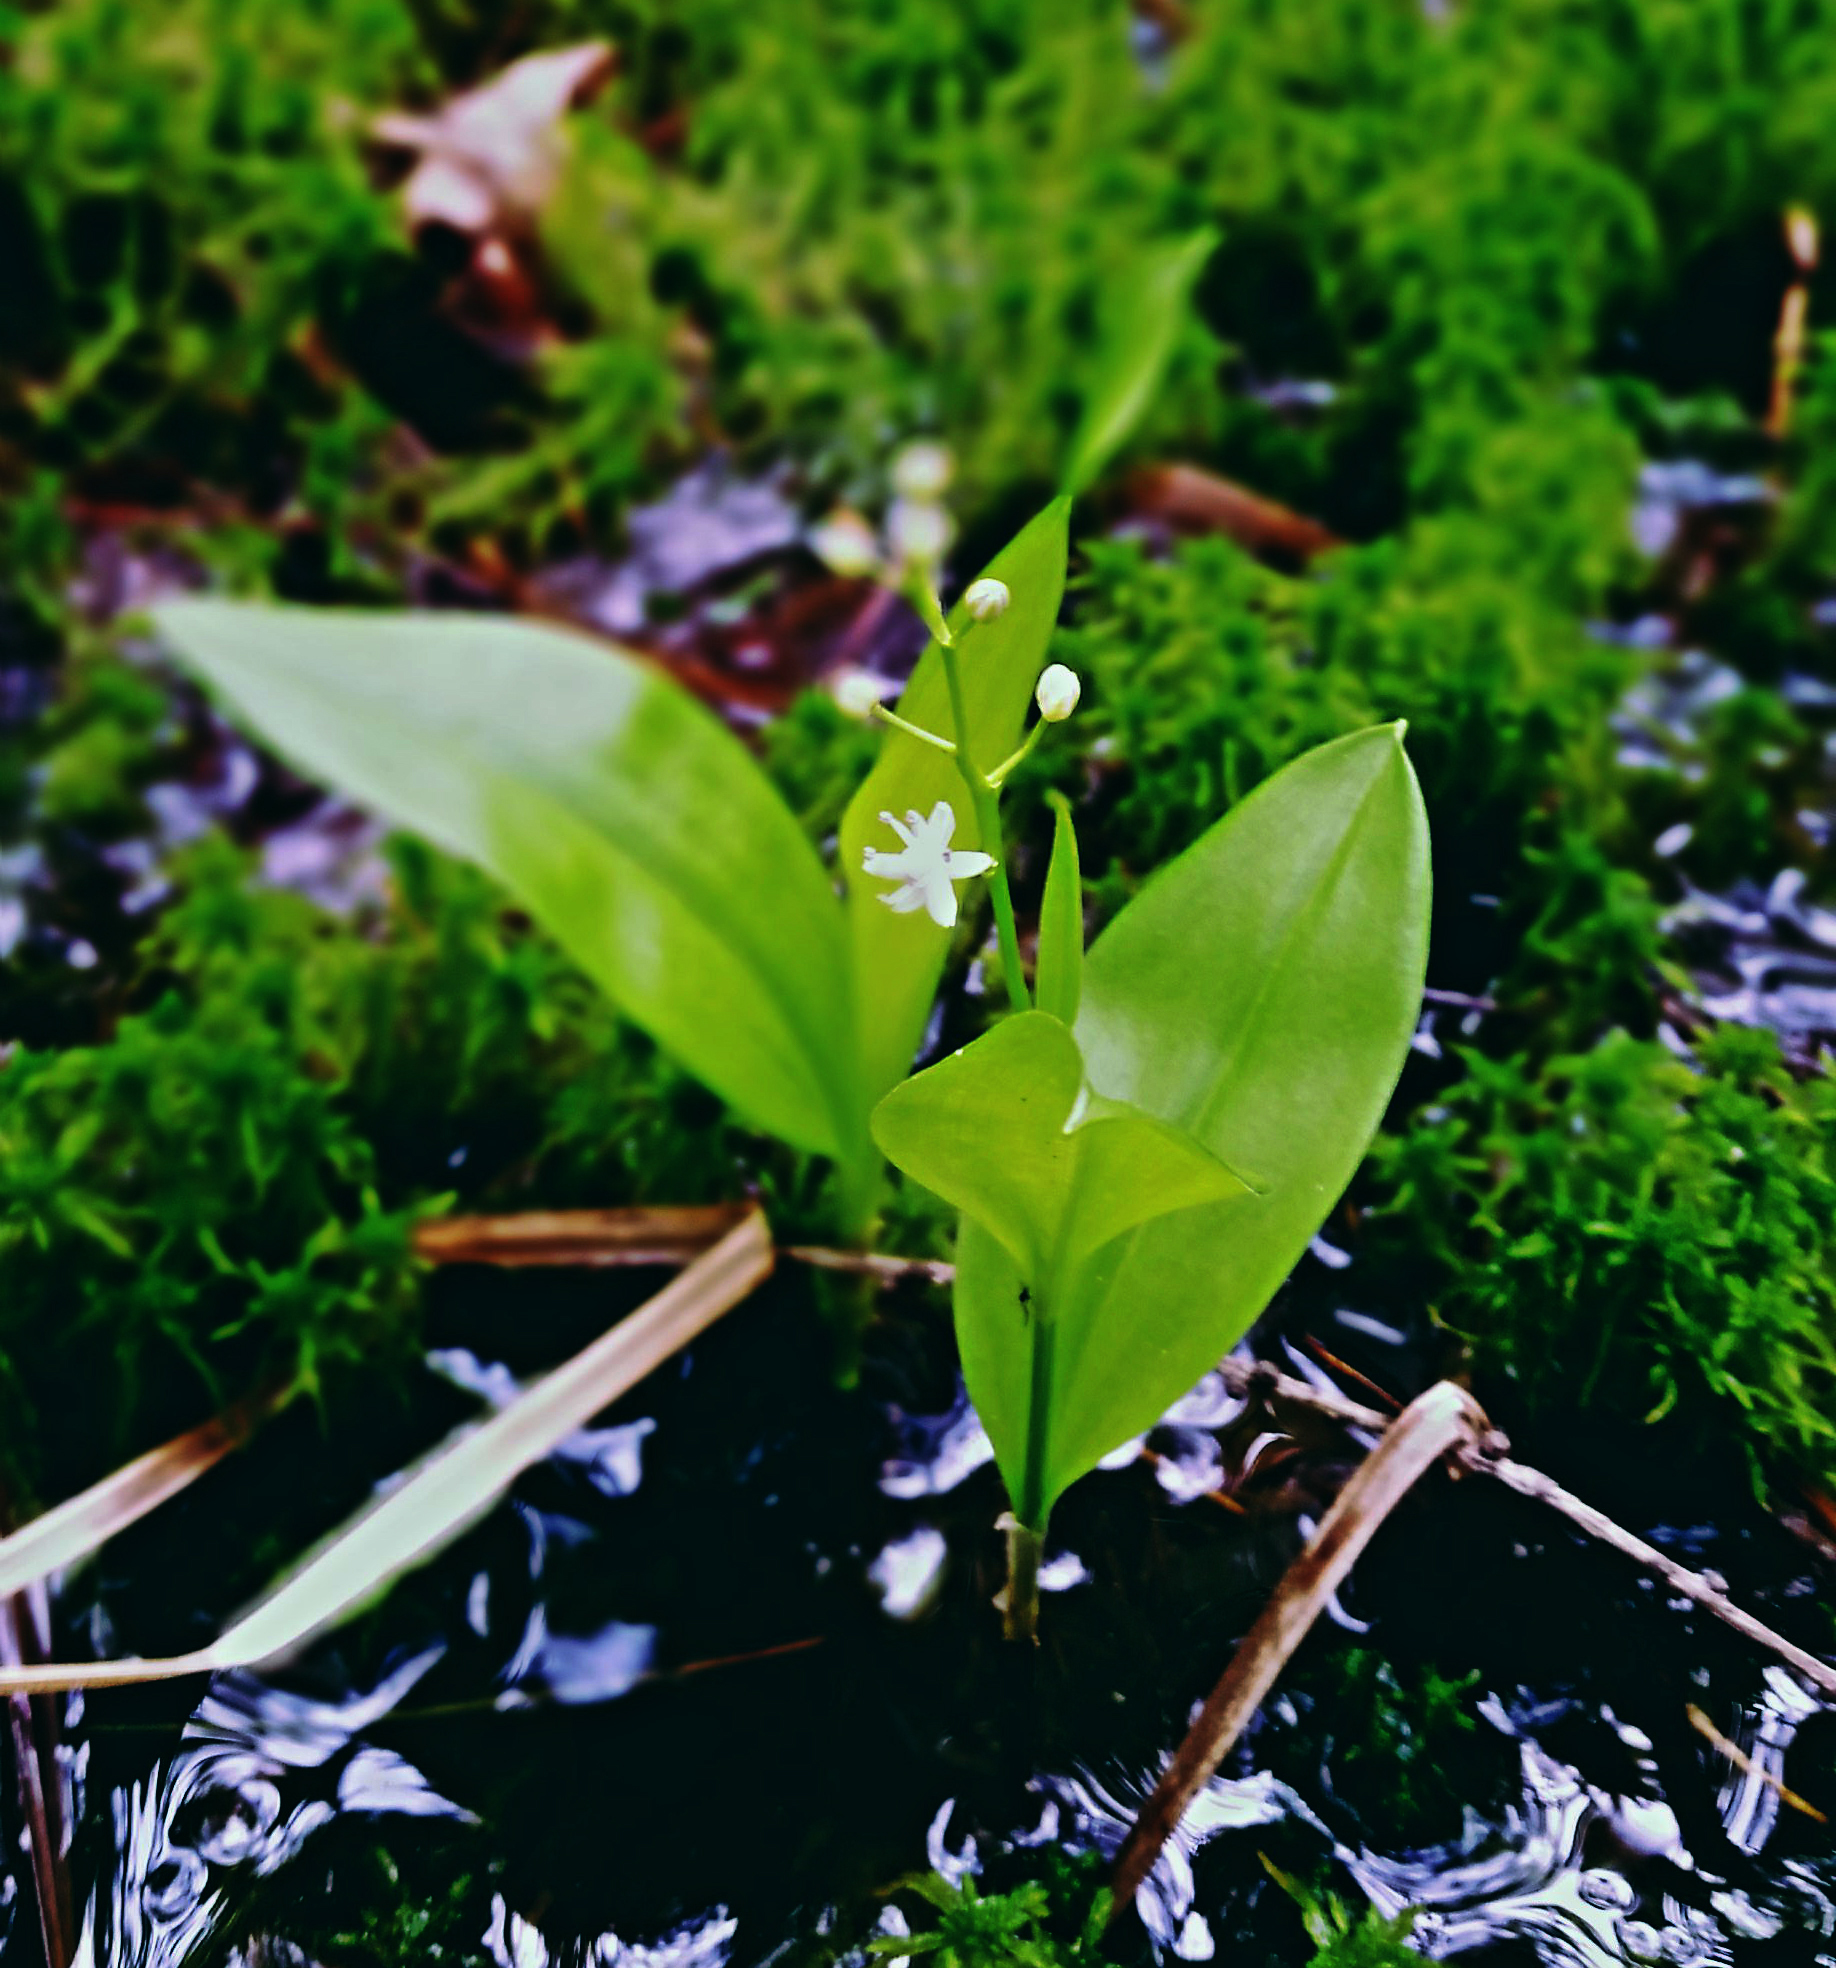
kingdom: Plantae
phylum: Tracheophyta
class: Liliopsida
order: Asparagales
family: Asparagaceae
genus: Maianthemum
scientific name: Maianthemum trifolium
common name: Swamp false solomon's seal
